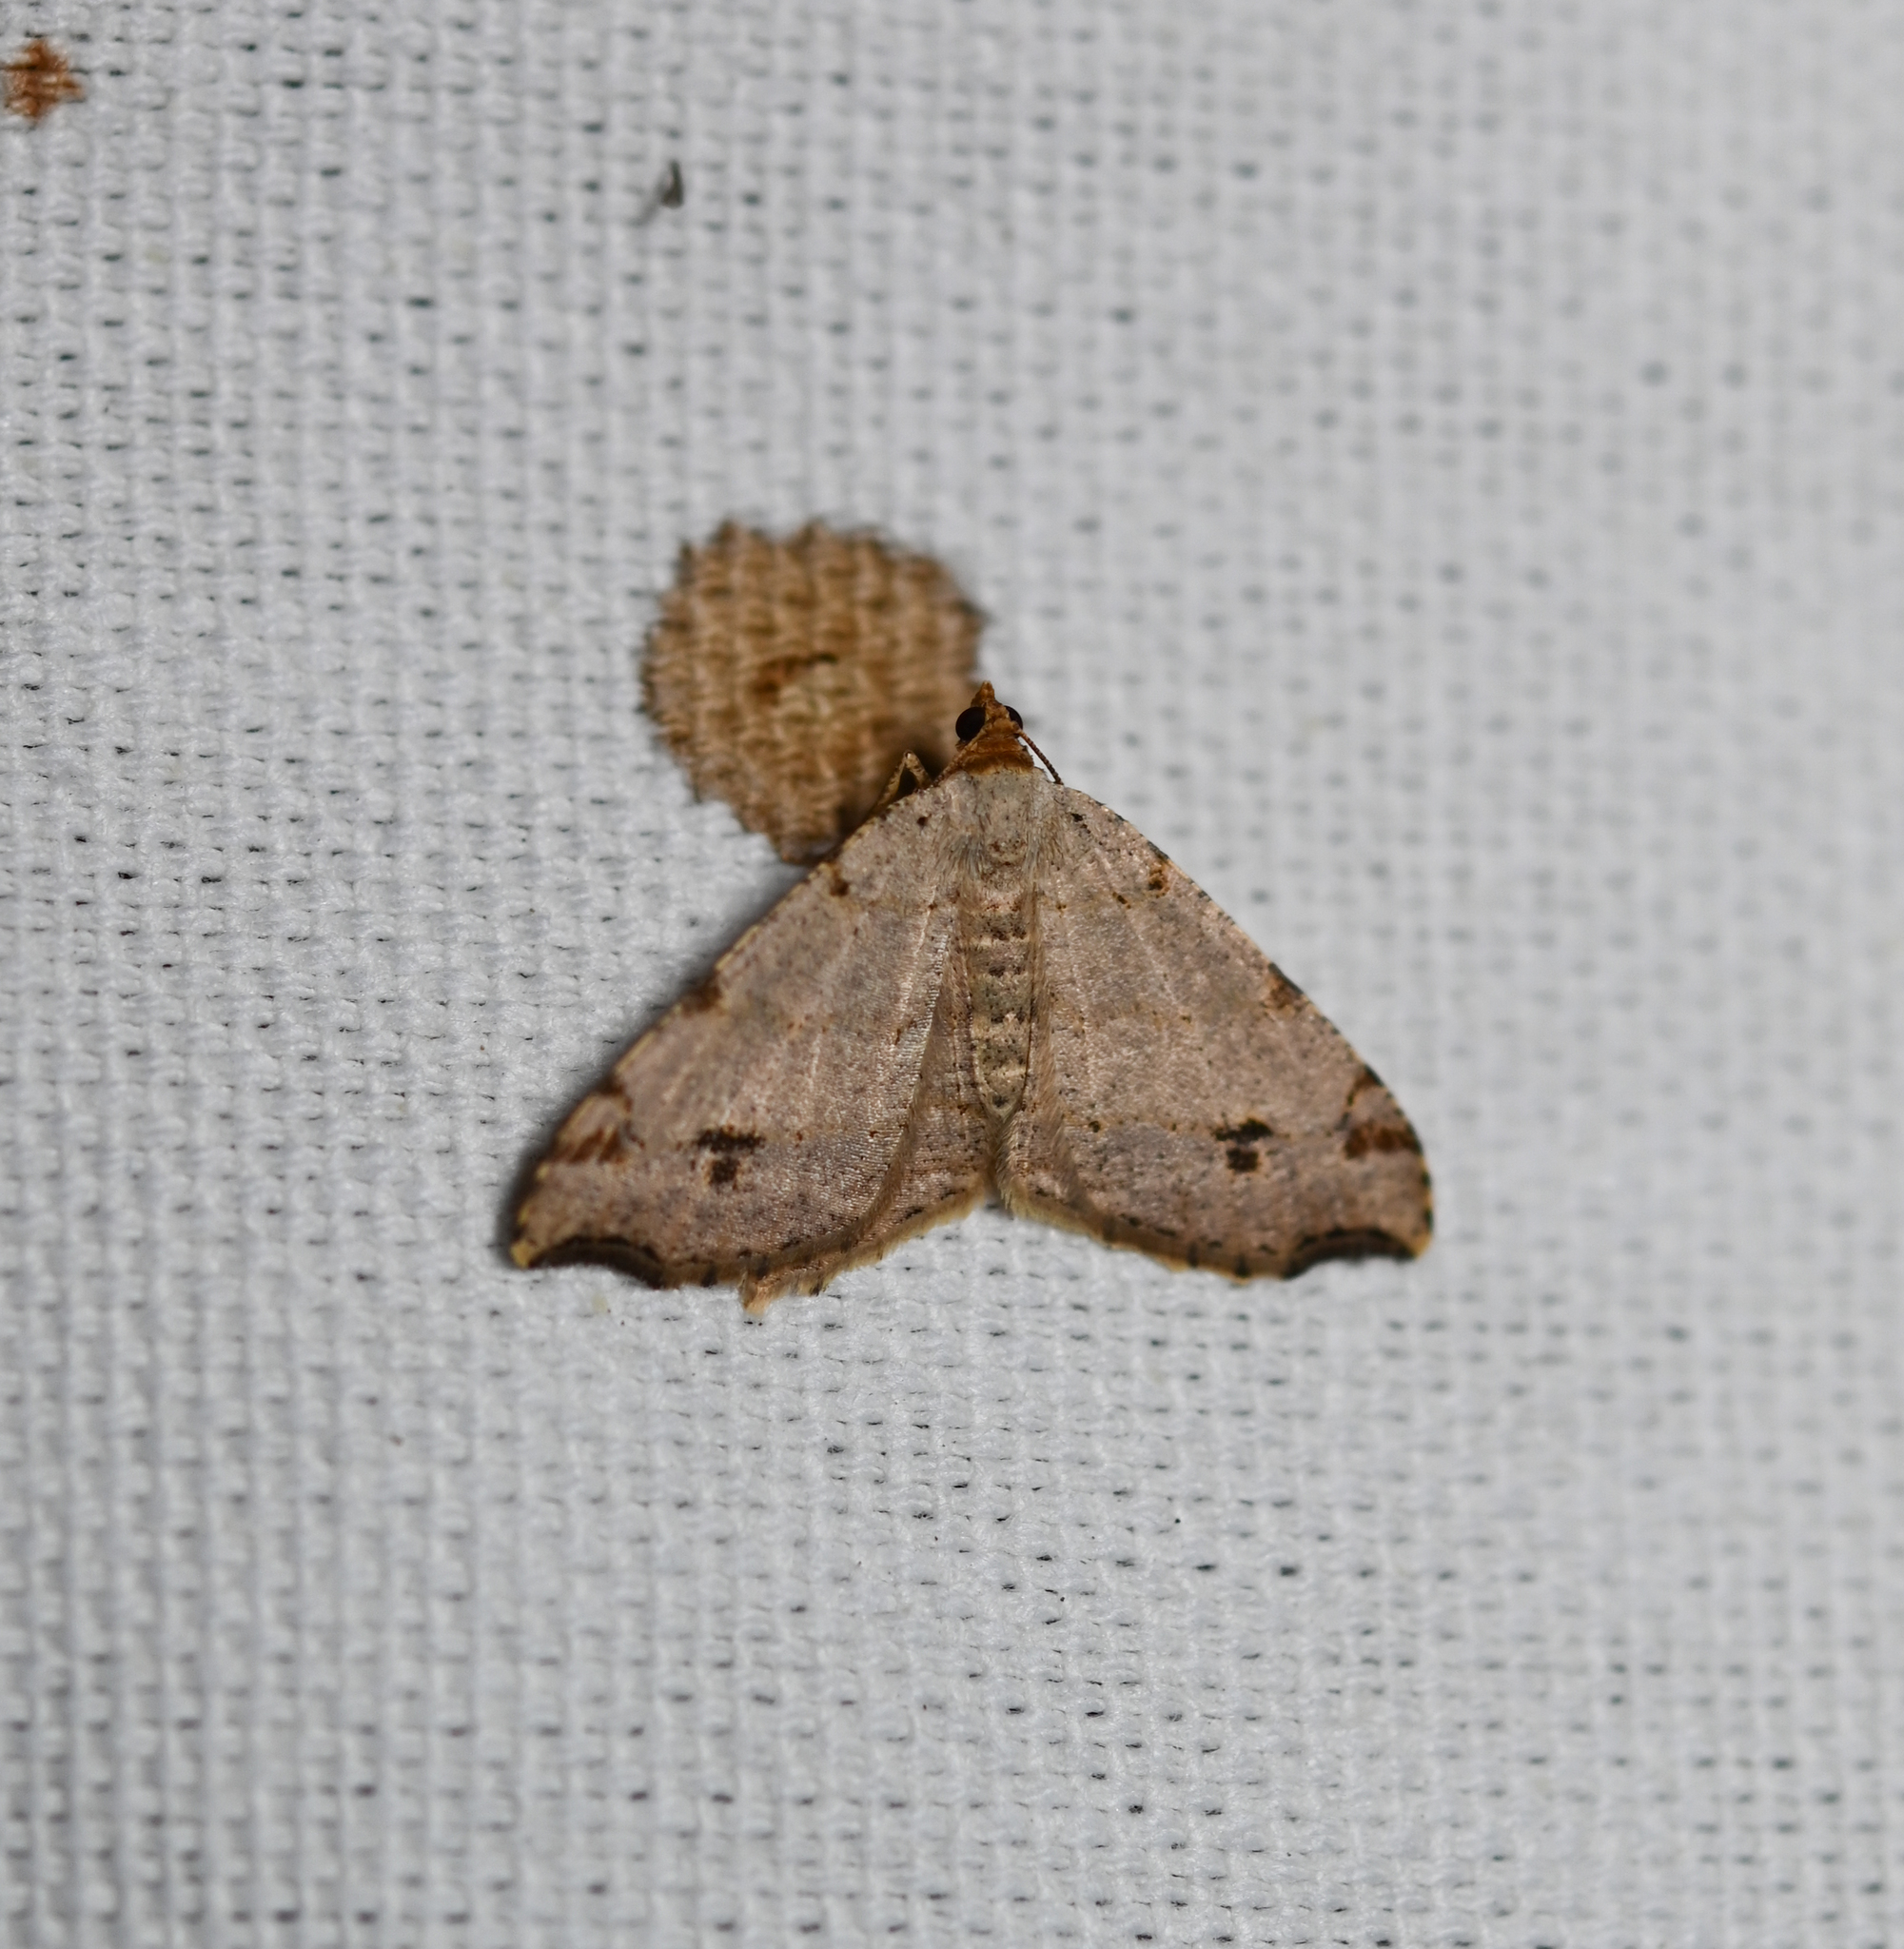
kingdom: Animalia
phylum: Arthropoda
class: Insecta
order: Lepidoptera
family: Geometridae
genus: Macaria
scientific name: Macaria aemulataria
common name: Common angle
